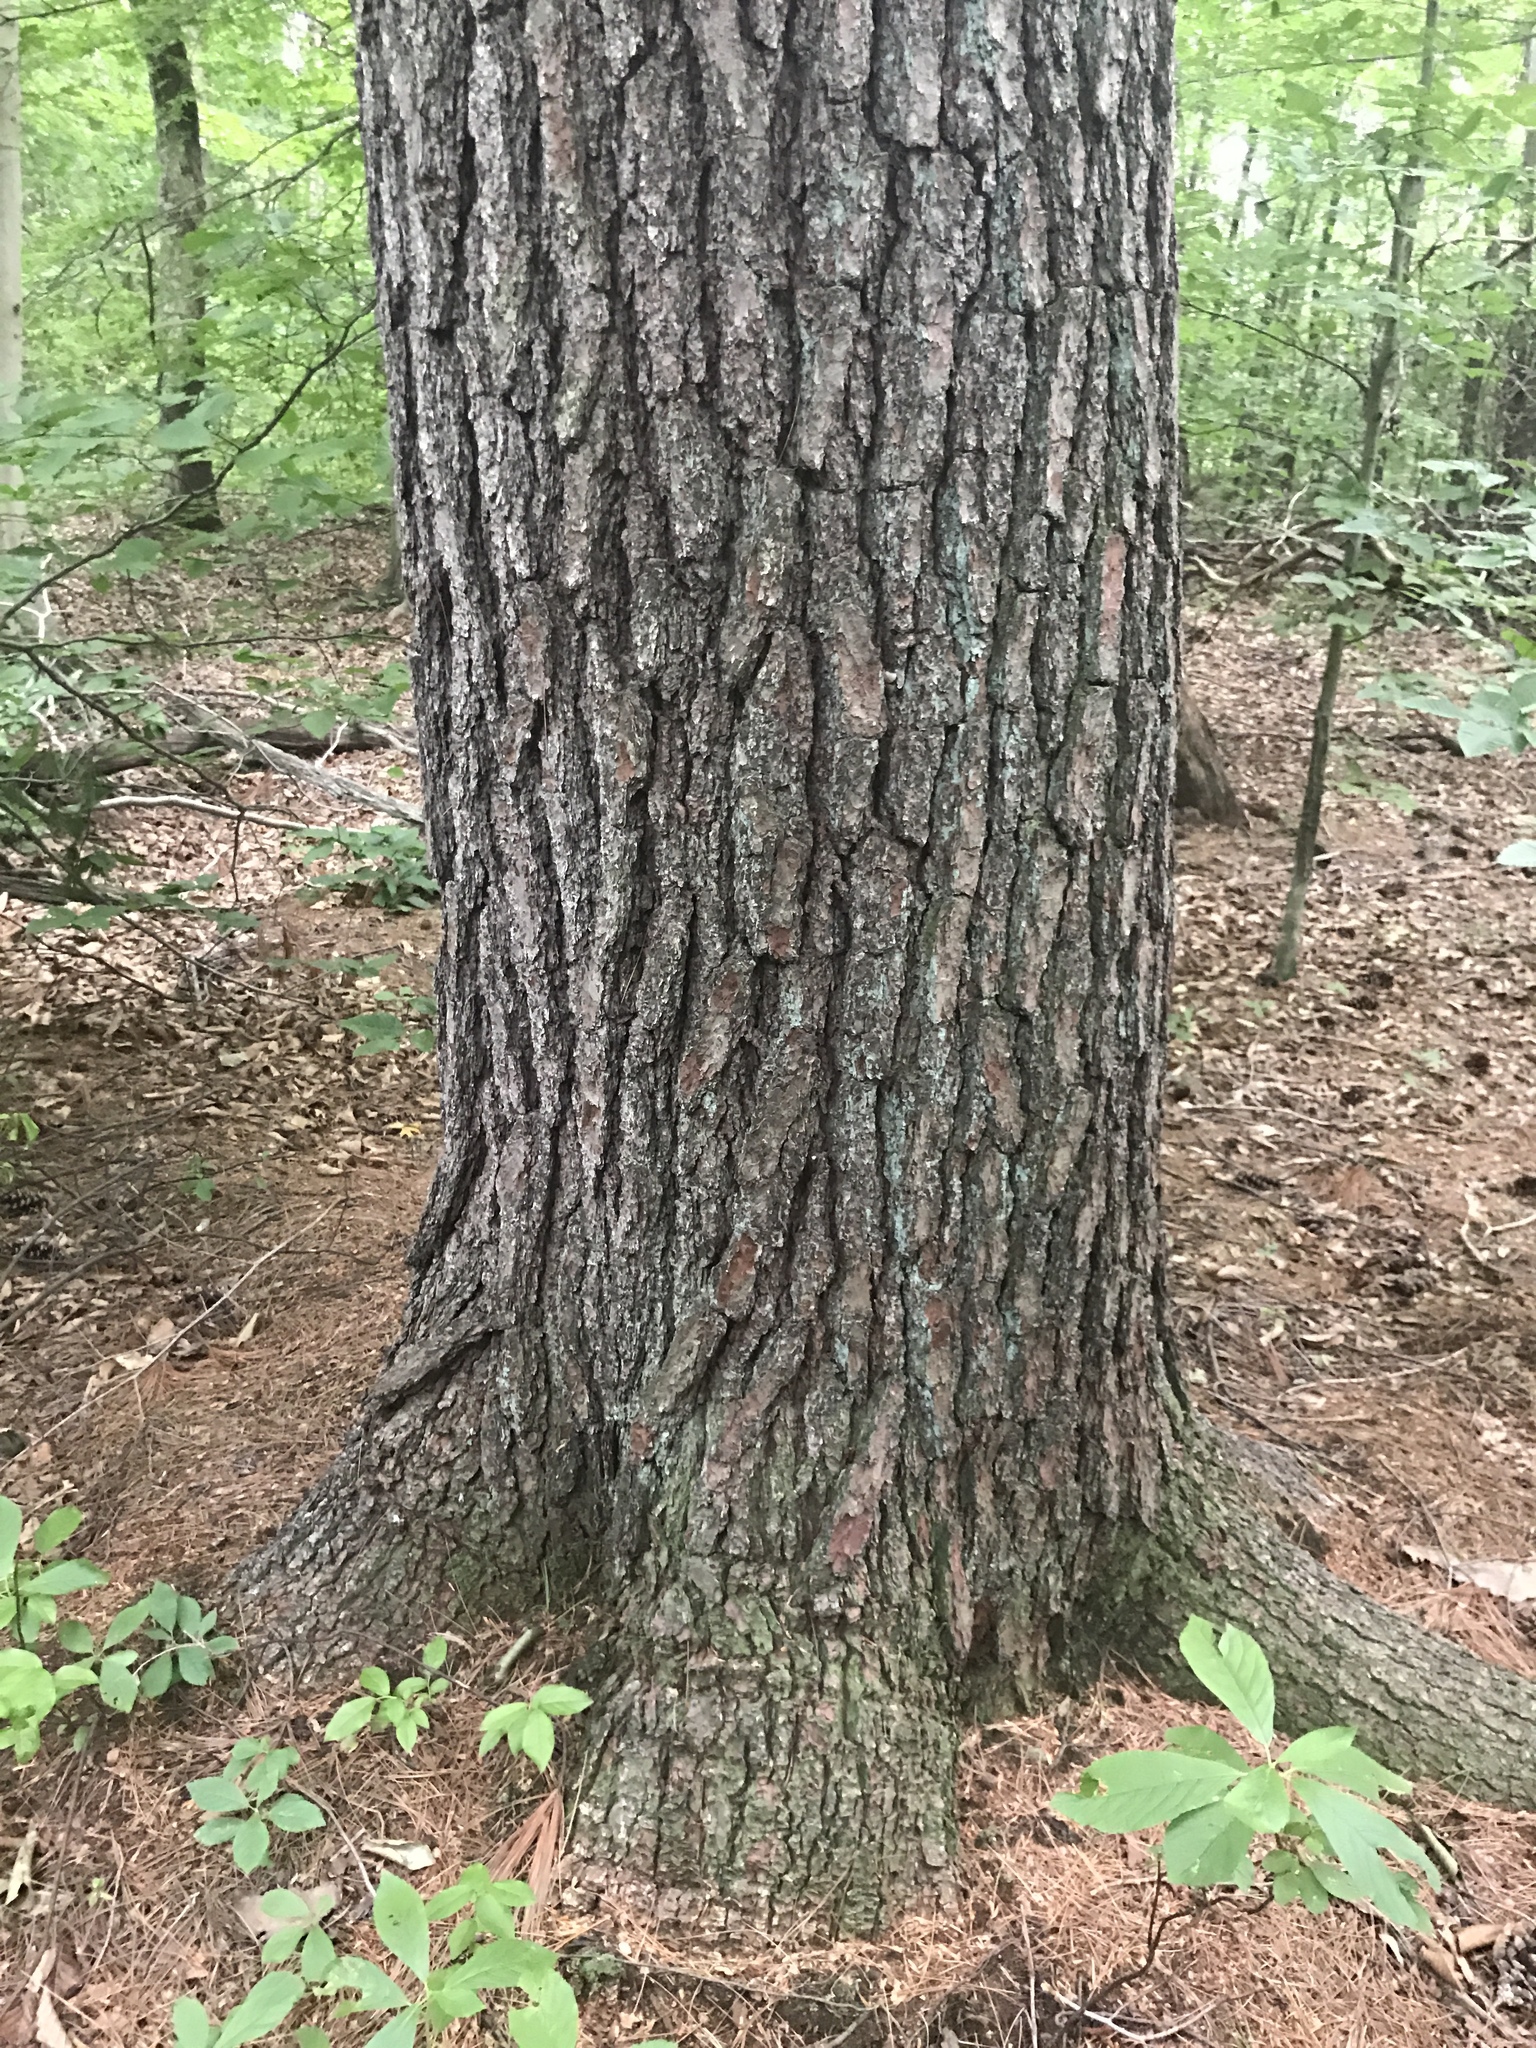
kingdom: Plantae
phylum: Tracheophyta
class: Pinopsida
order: Pinales
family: Pinaceae
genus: Pinus
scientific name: Pinus strobus
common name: Weymouth pine
